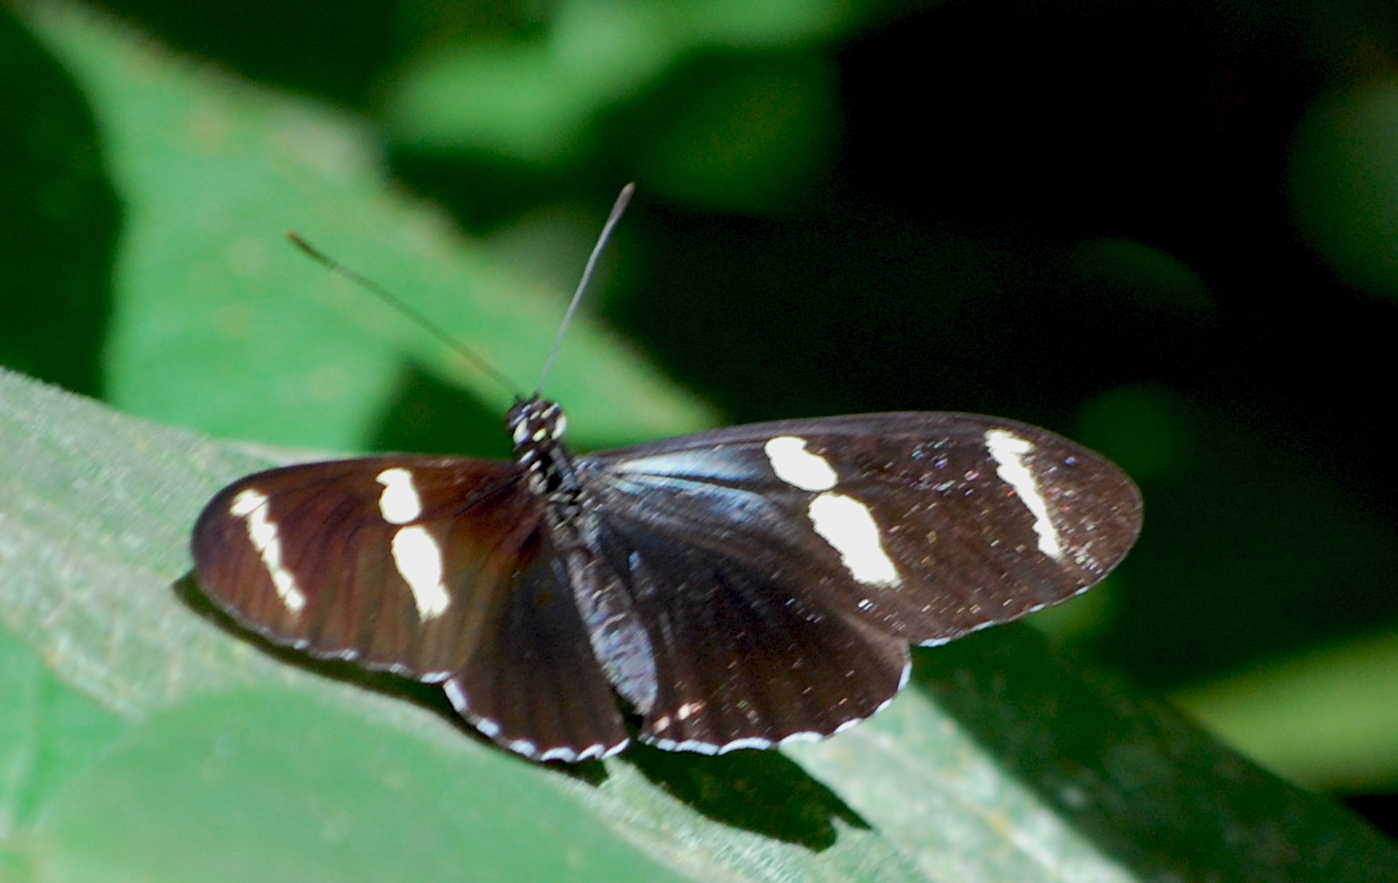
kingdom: Animalia
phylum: Arthropoda
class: Insecta
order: Lepidoptera
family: Nymphalidae
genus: Heliconius
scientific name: Heliconius sara
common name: Sara longwing
